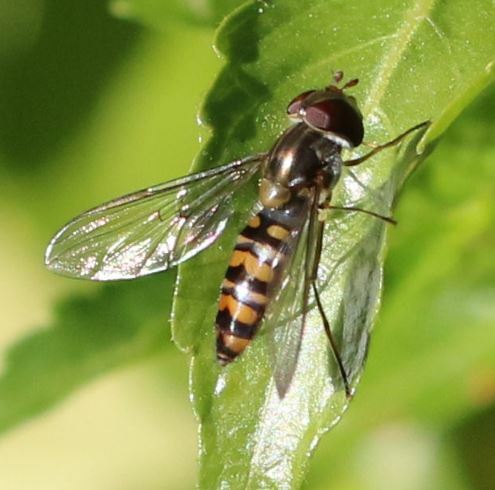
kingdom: Animalia
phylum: Arthropoda
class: Insecta
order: Diptera
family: Syrphidae
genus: Episyrphus
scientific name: Episyrphus balteatus
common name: Marmalade hoverfly
